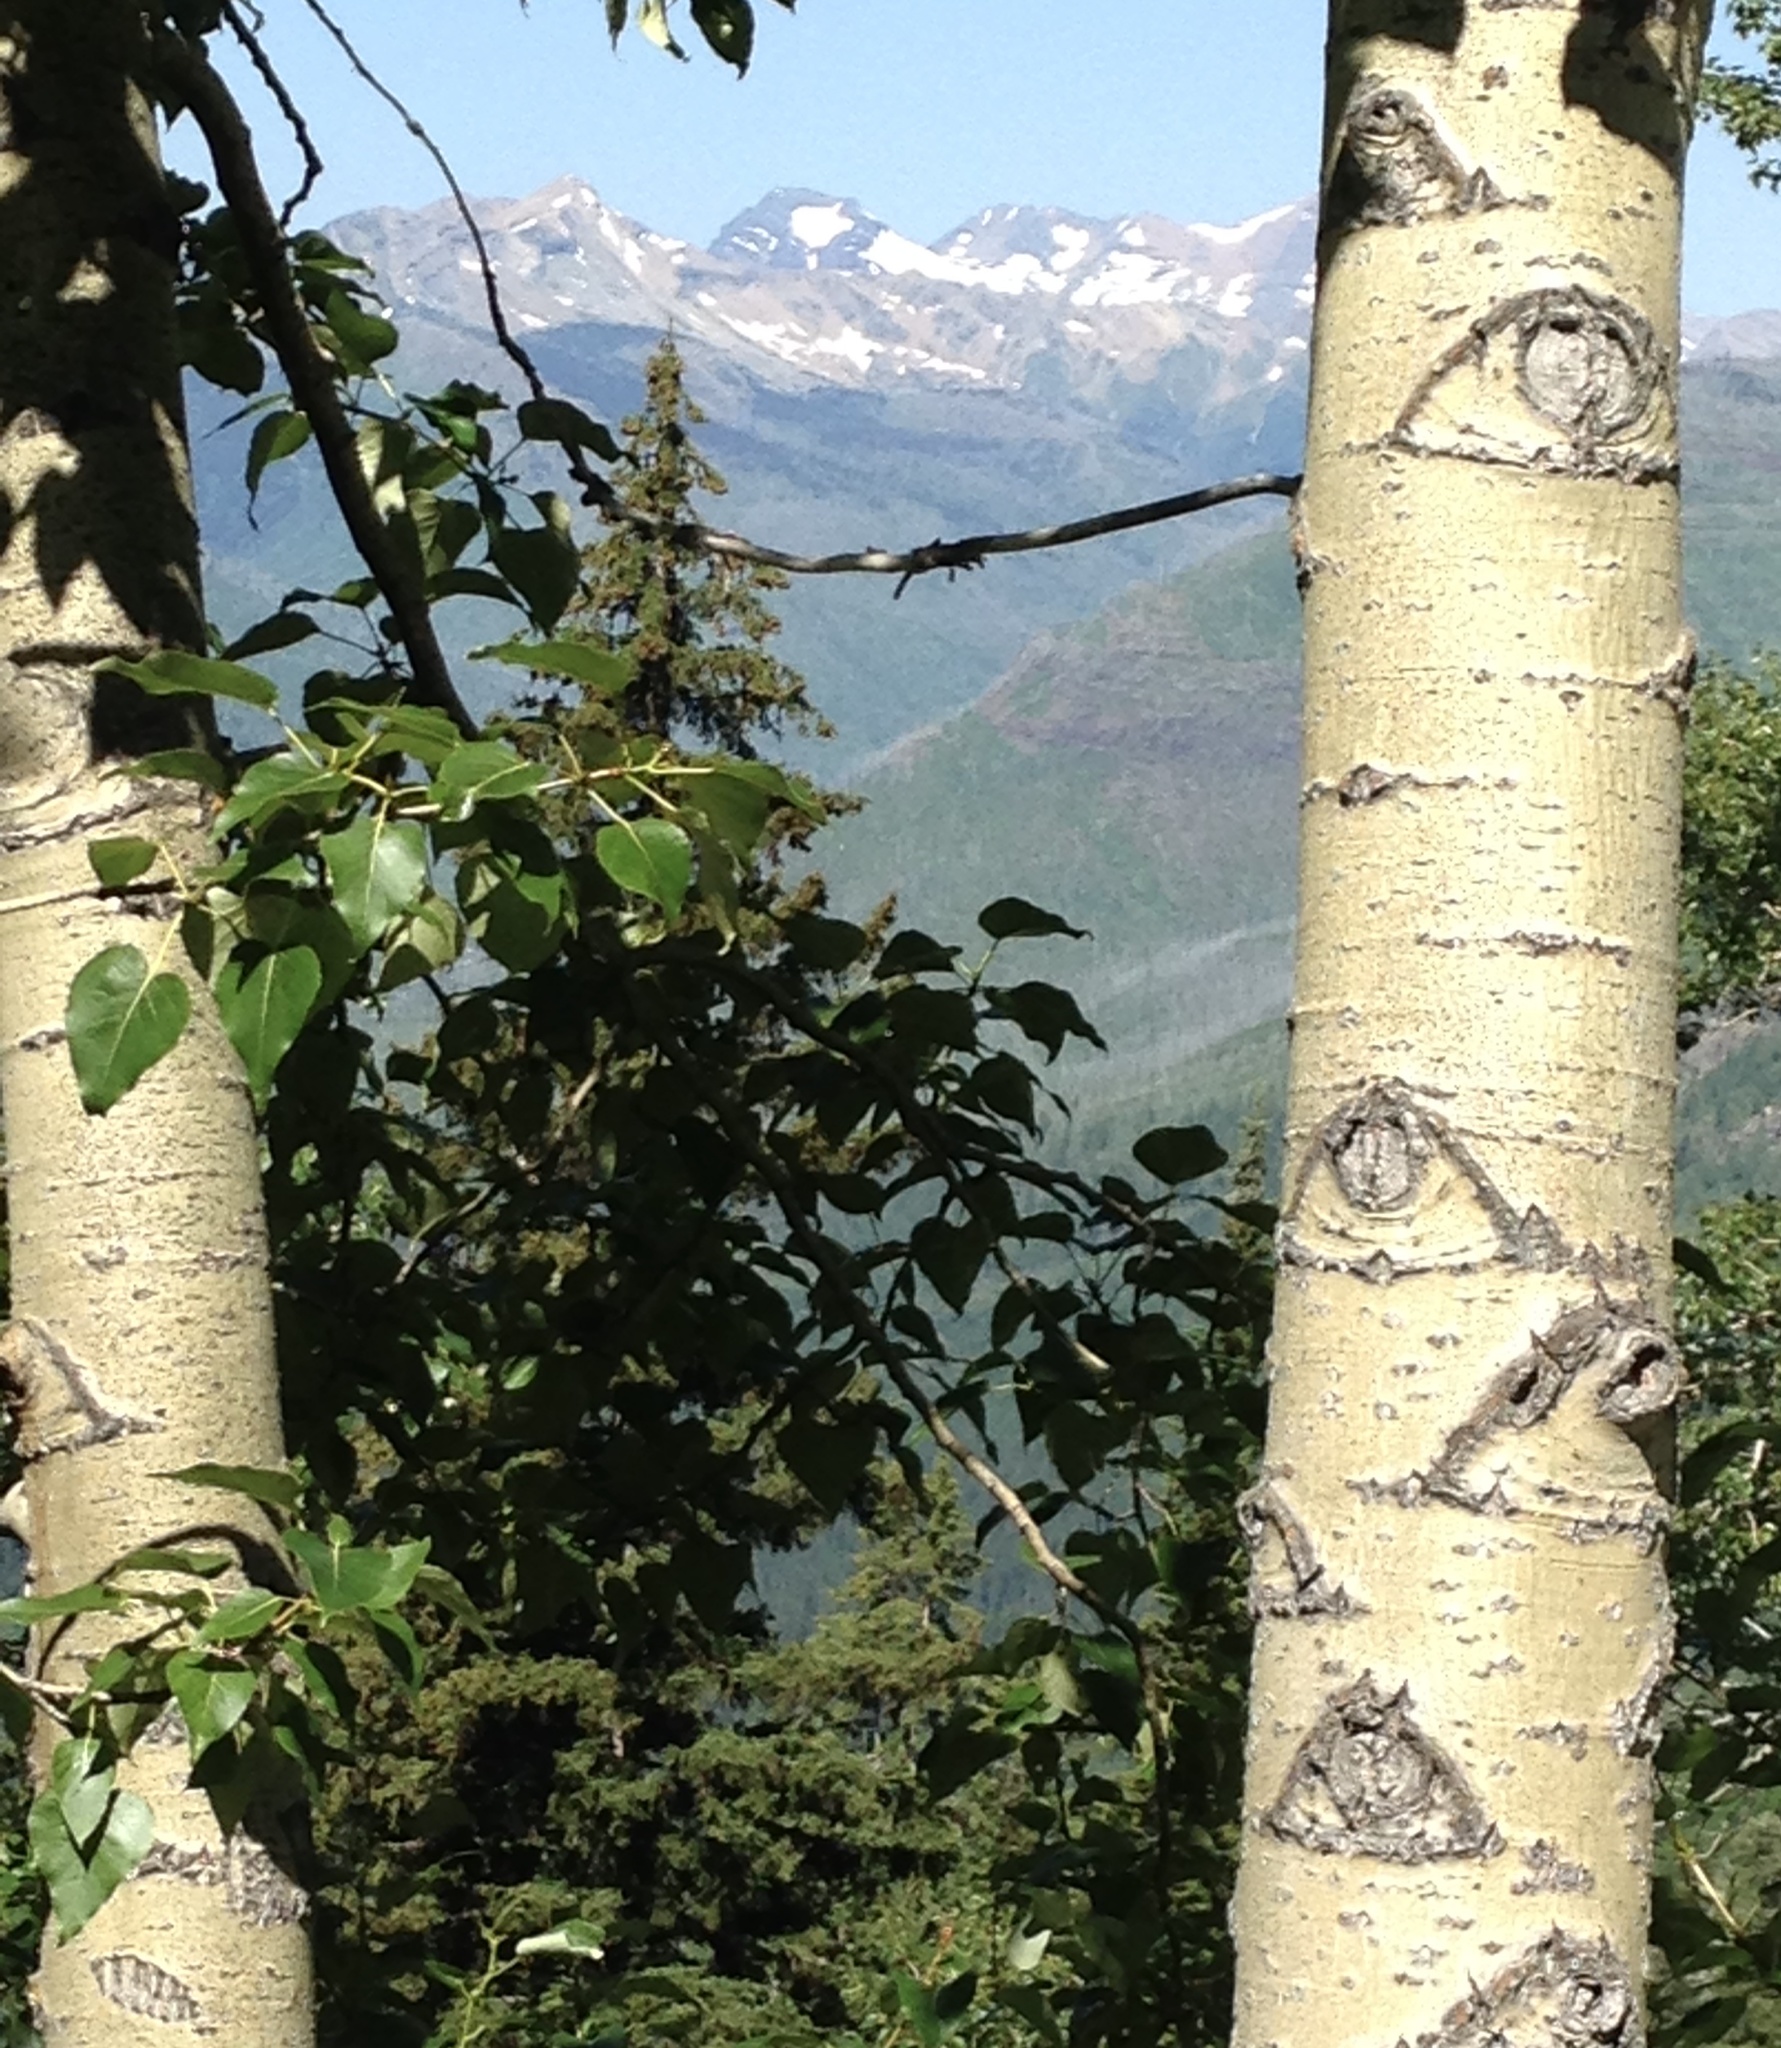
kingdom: Plantae
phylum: Tracheophyta
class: Magnoliopsida
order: Malpighiales
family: Salicaceae
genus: Populus
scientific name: Populus trichocarpa
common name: Black cottonwood
